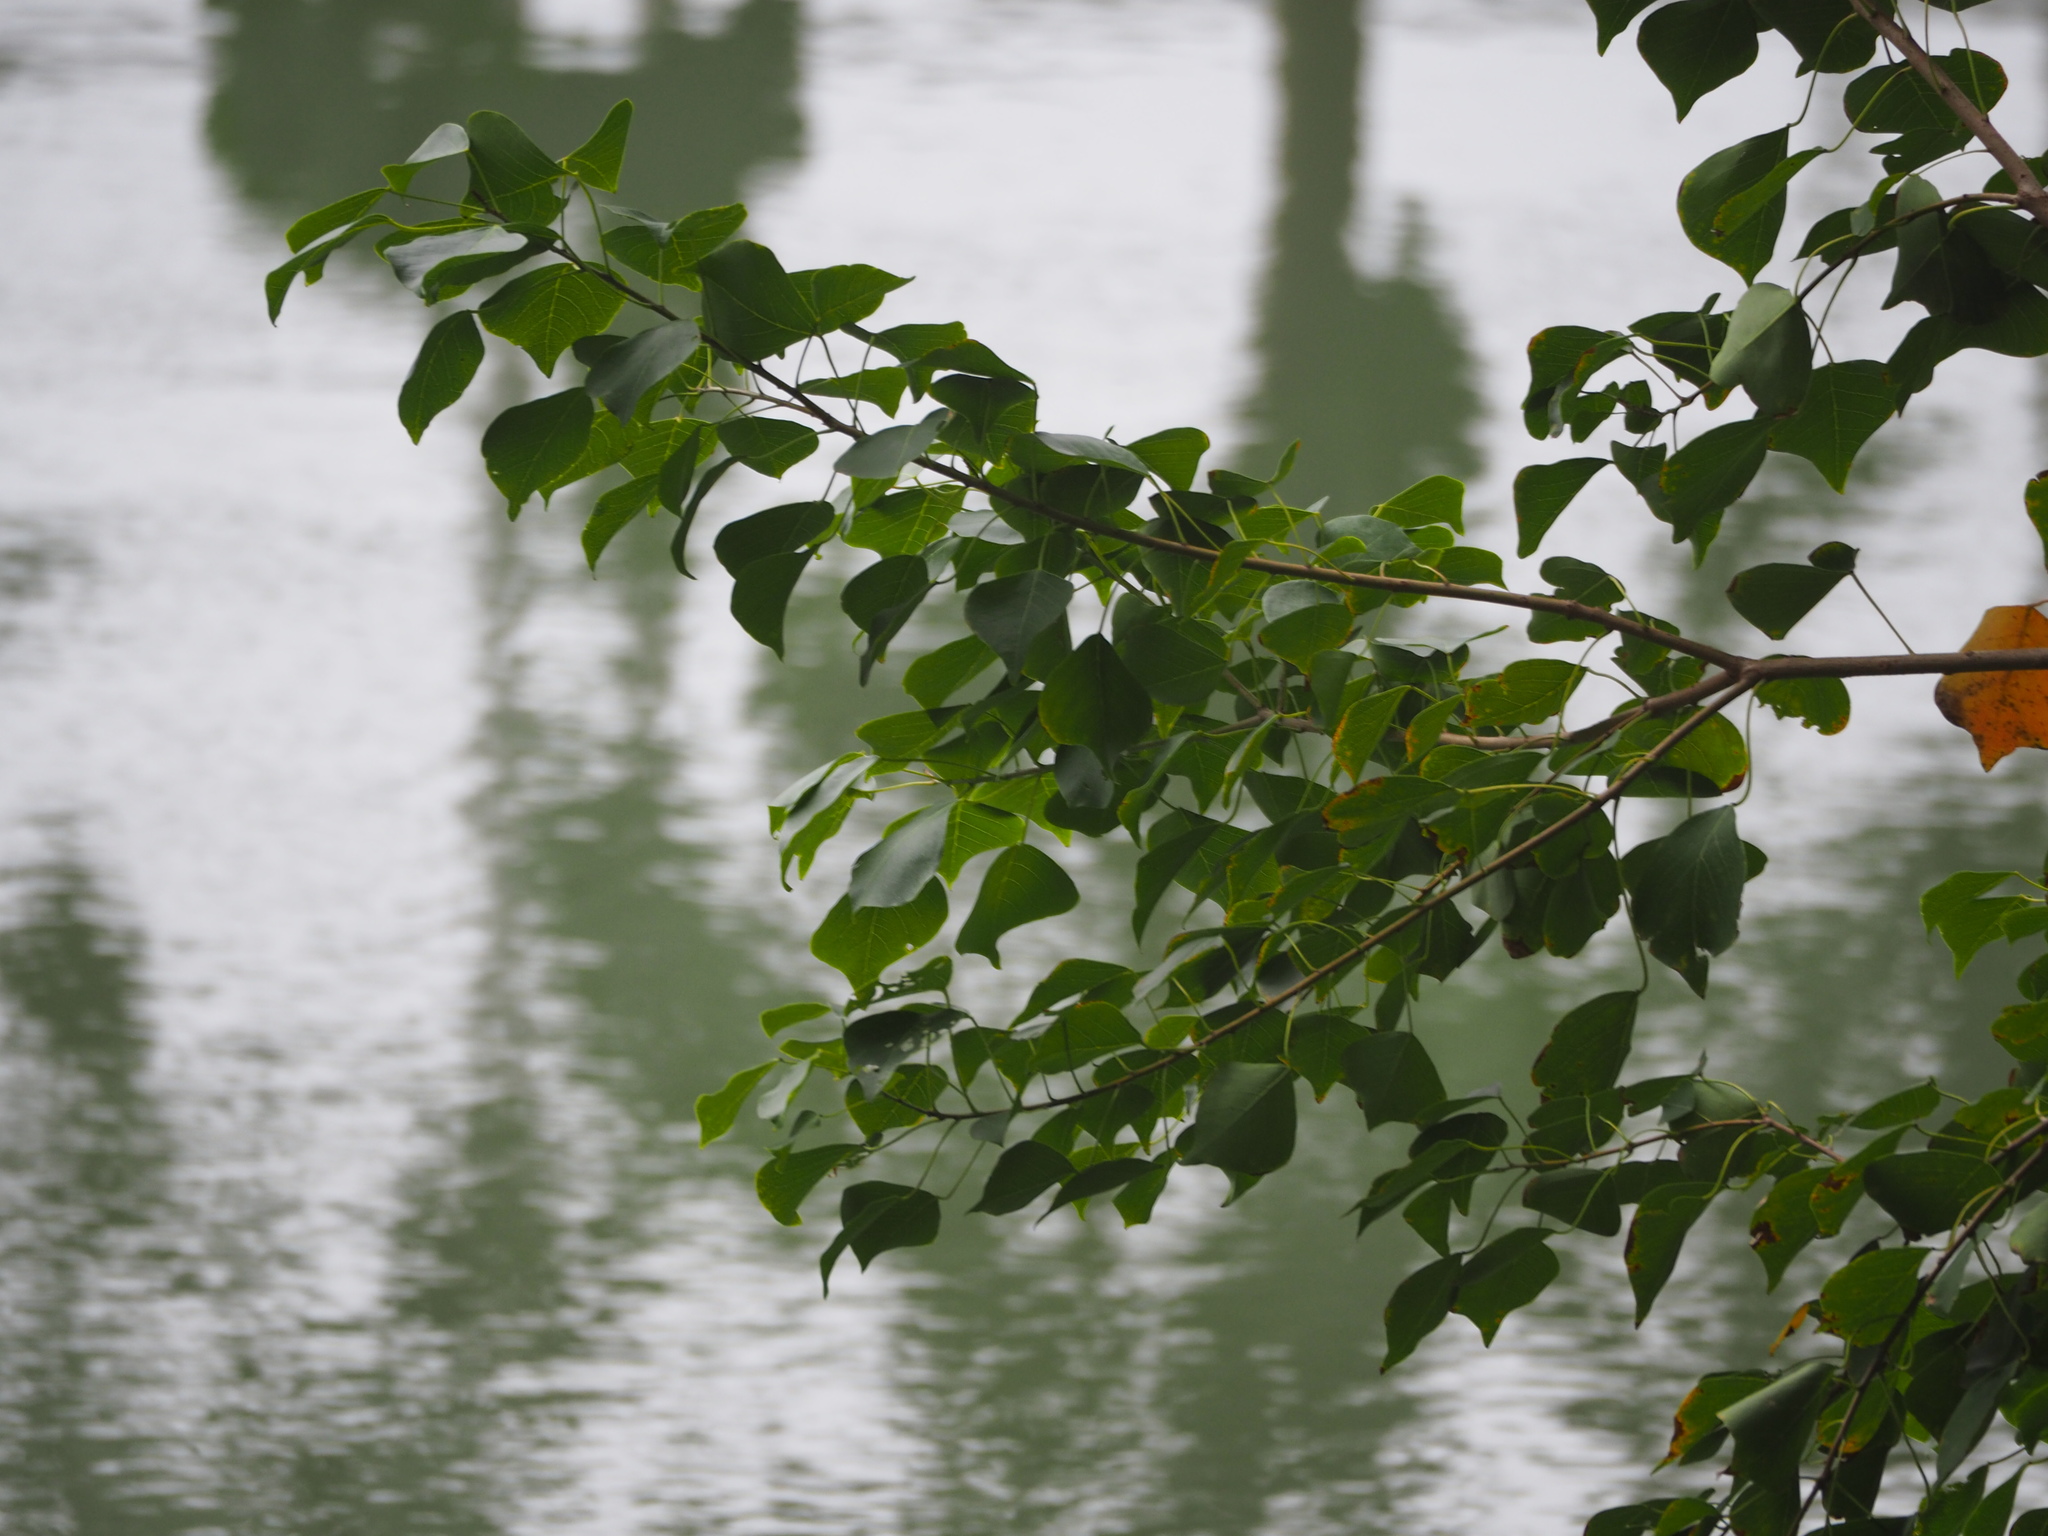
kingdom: Plantae
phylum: Tracheophyta
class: Magnoliopsida
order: Malpighiales
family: Euphorbiaceae
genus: Triadica
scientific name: Triadica sebifera
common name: Chinese tallow
